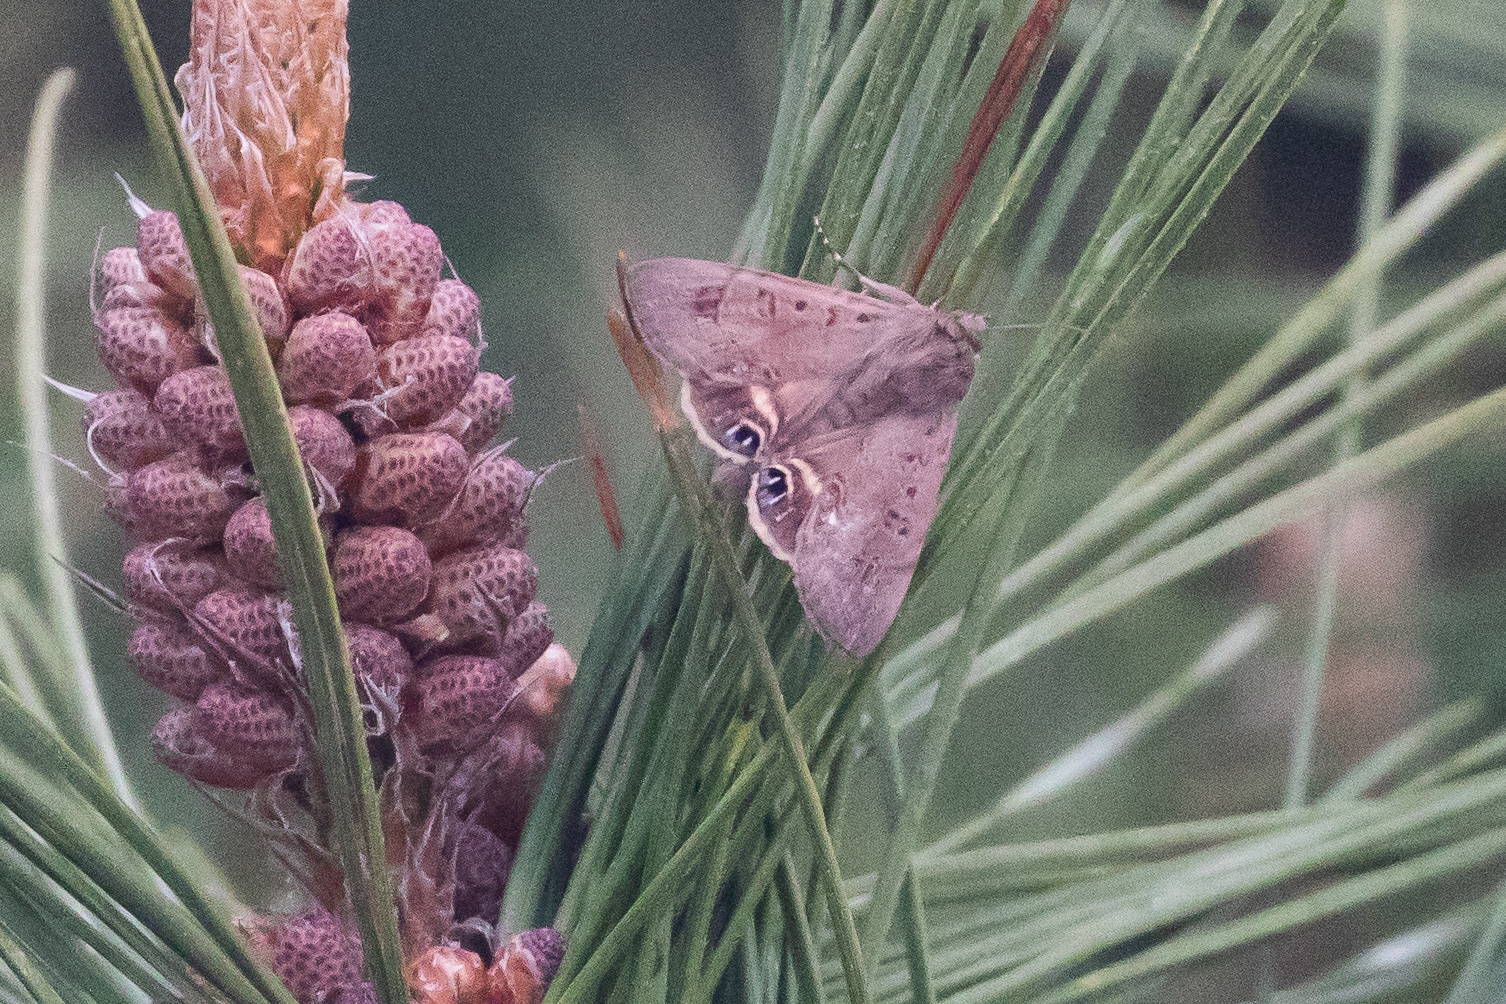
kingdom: Animalia
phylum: Arthropoda
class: Insecta
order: Lepidoptera
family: Erebidae
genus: Litoprosopus
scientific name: Litoprosopus futilis
